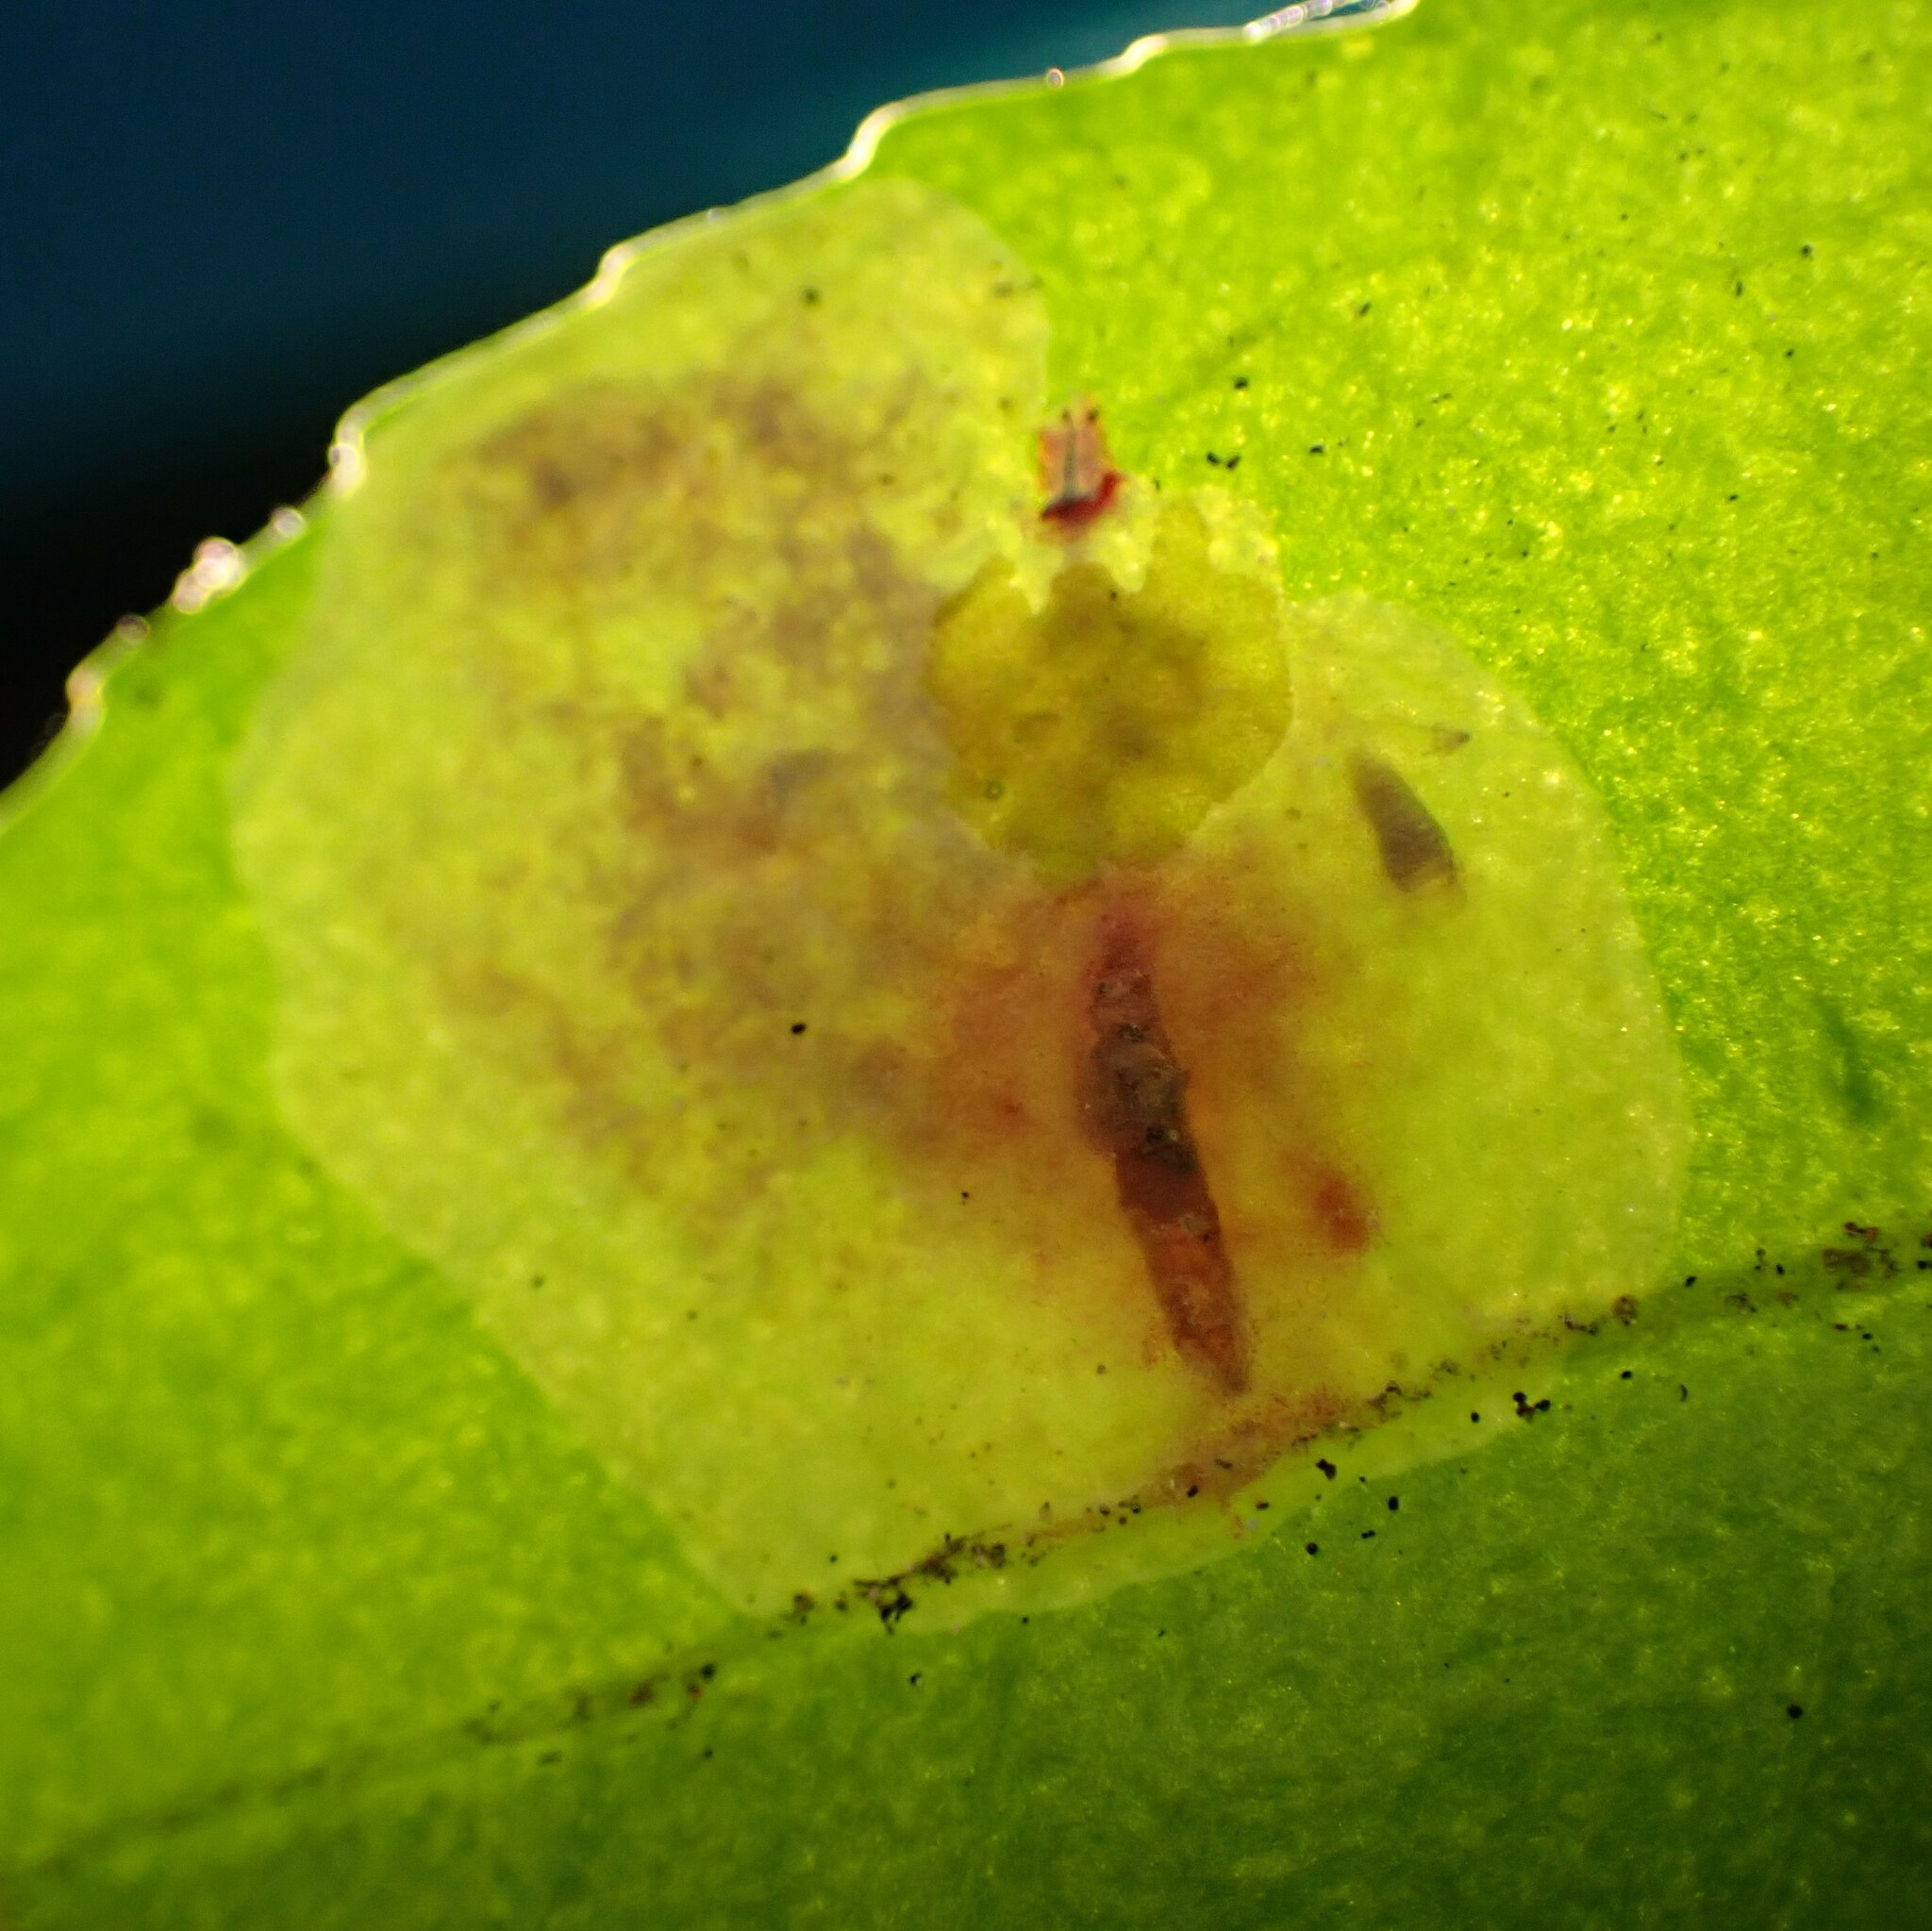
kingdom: Animalia
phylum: Arthropoda
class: Insecta
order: Lepidoptera
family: Gracillariidae
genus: Cameraria
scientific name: Cameraria nemoris
